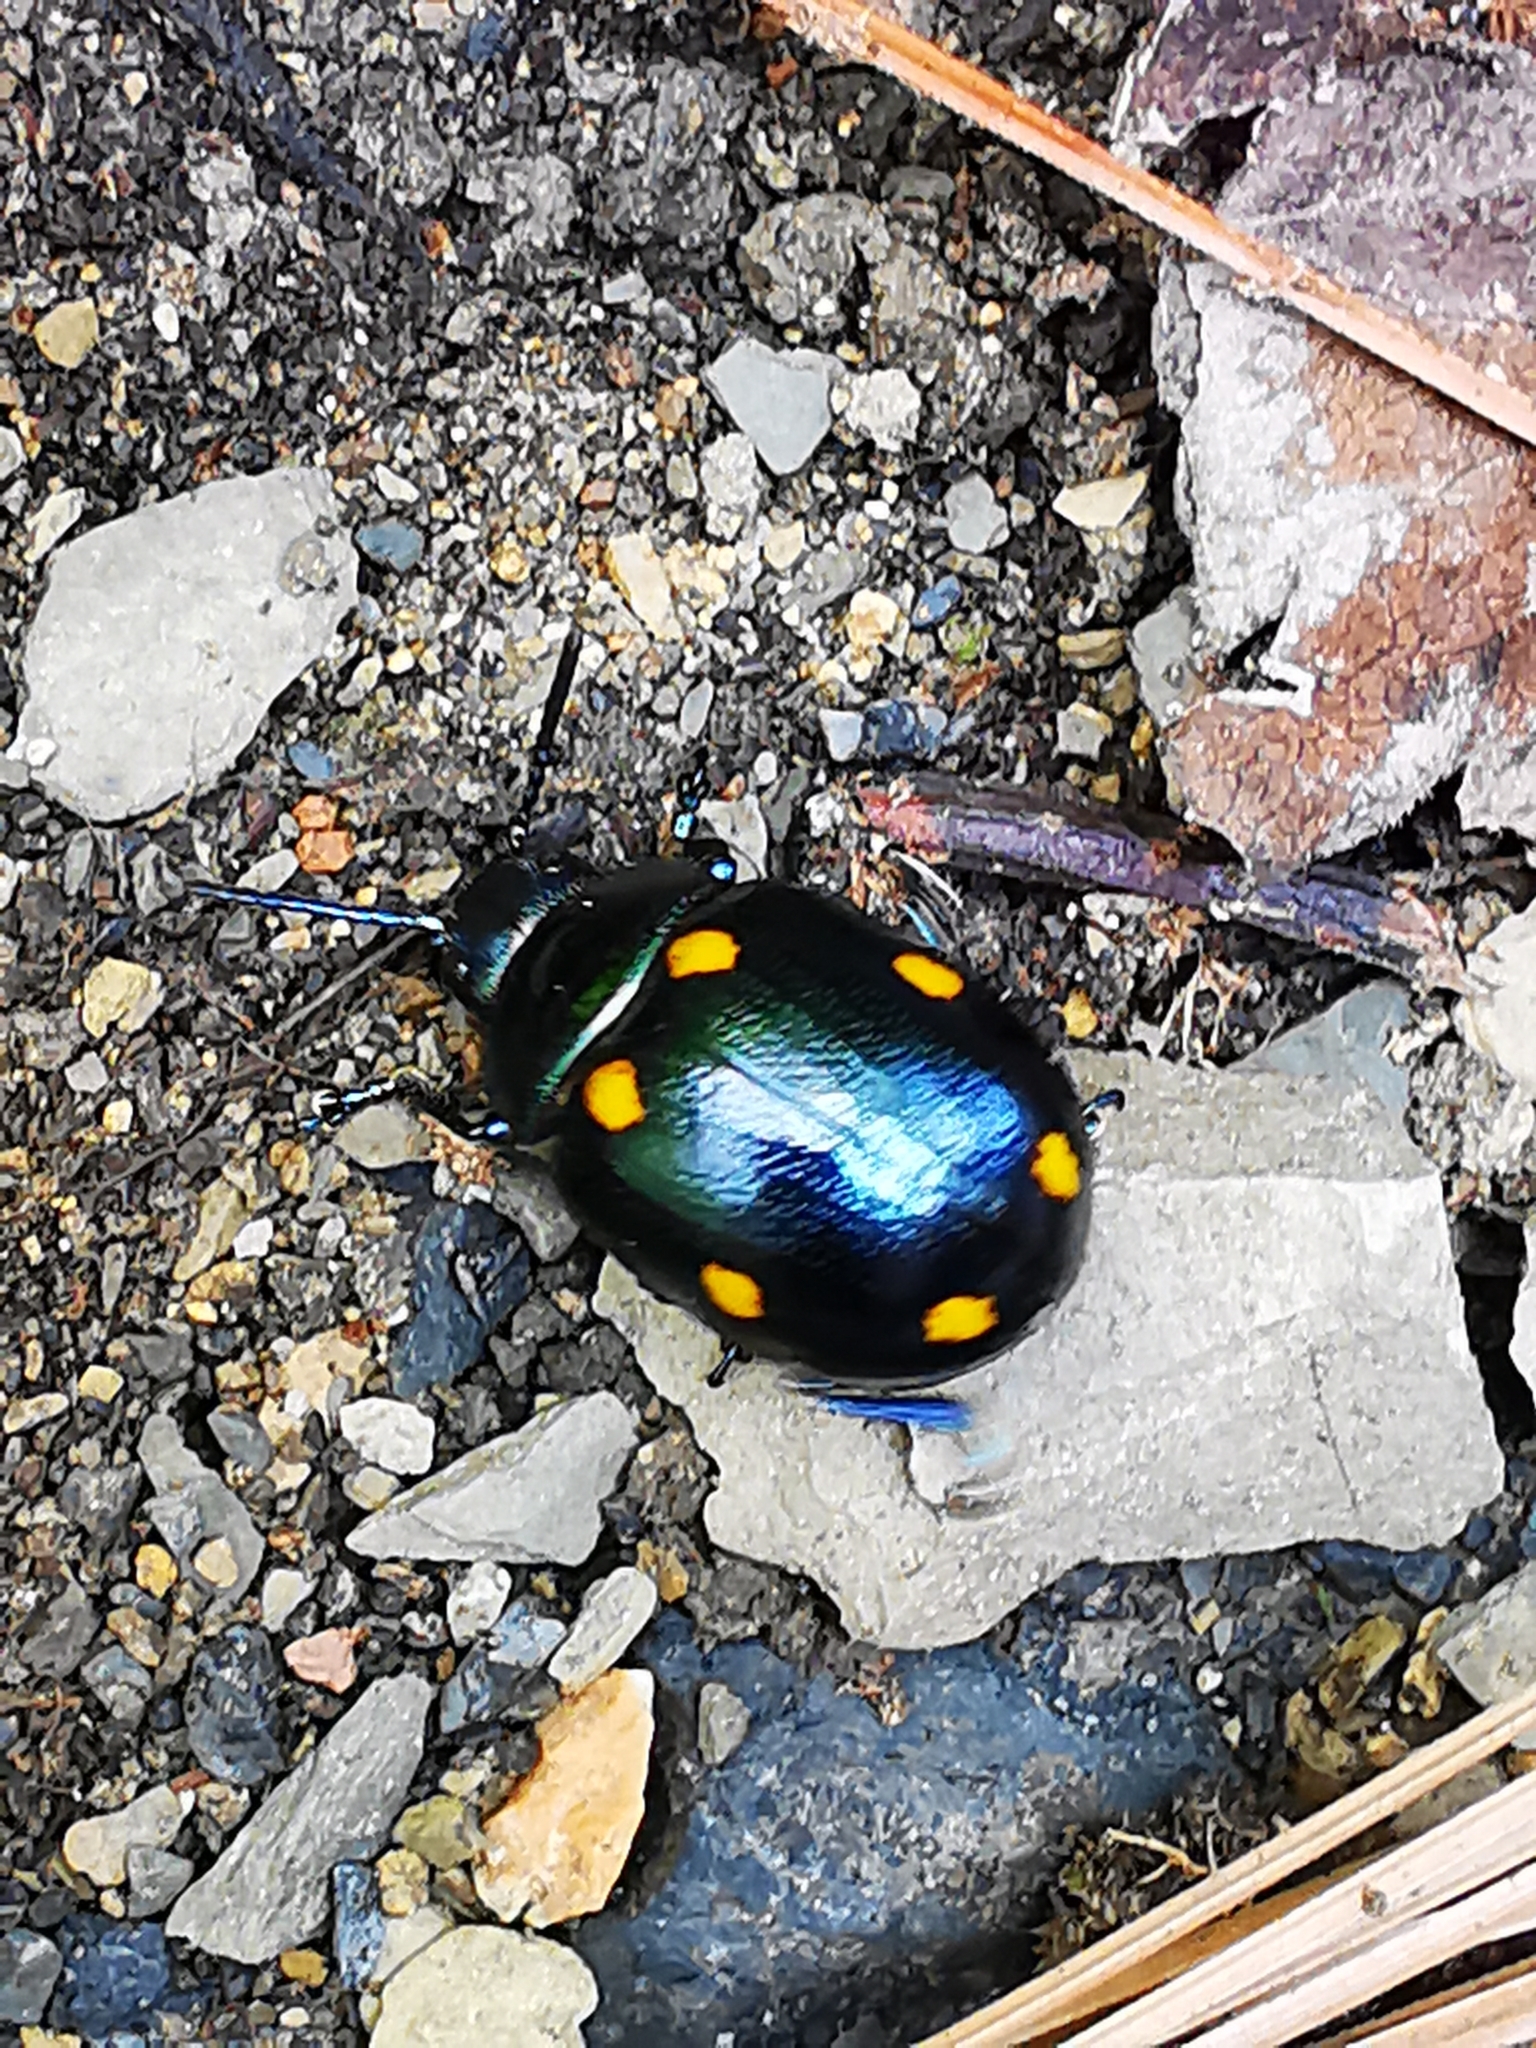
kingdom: Animalia
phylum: Arthropoda
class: Insecta
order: Coleoptera
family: Chrysomelidae
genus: Labidomera
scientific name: Labidomera
